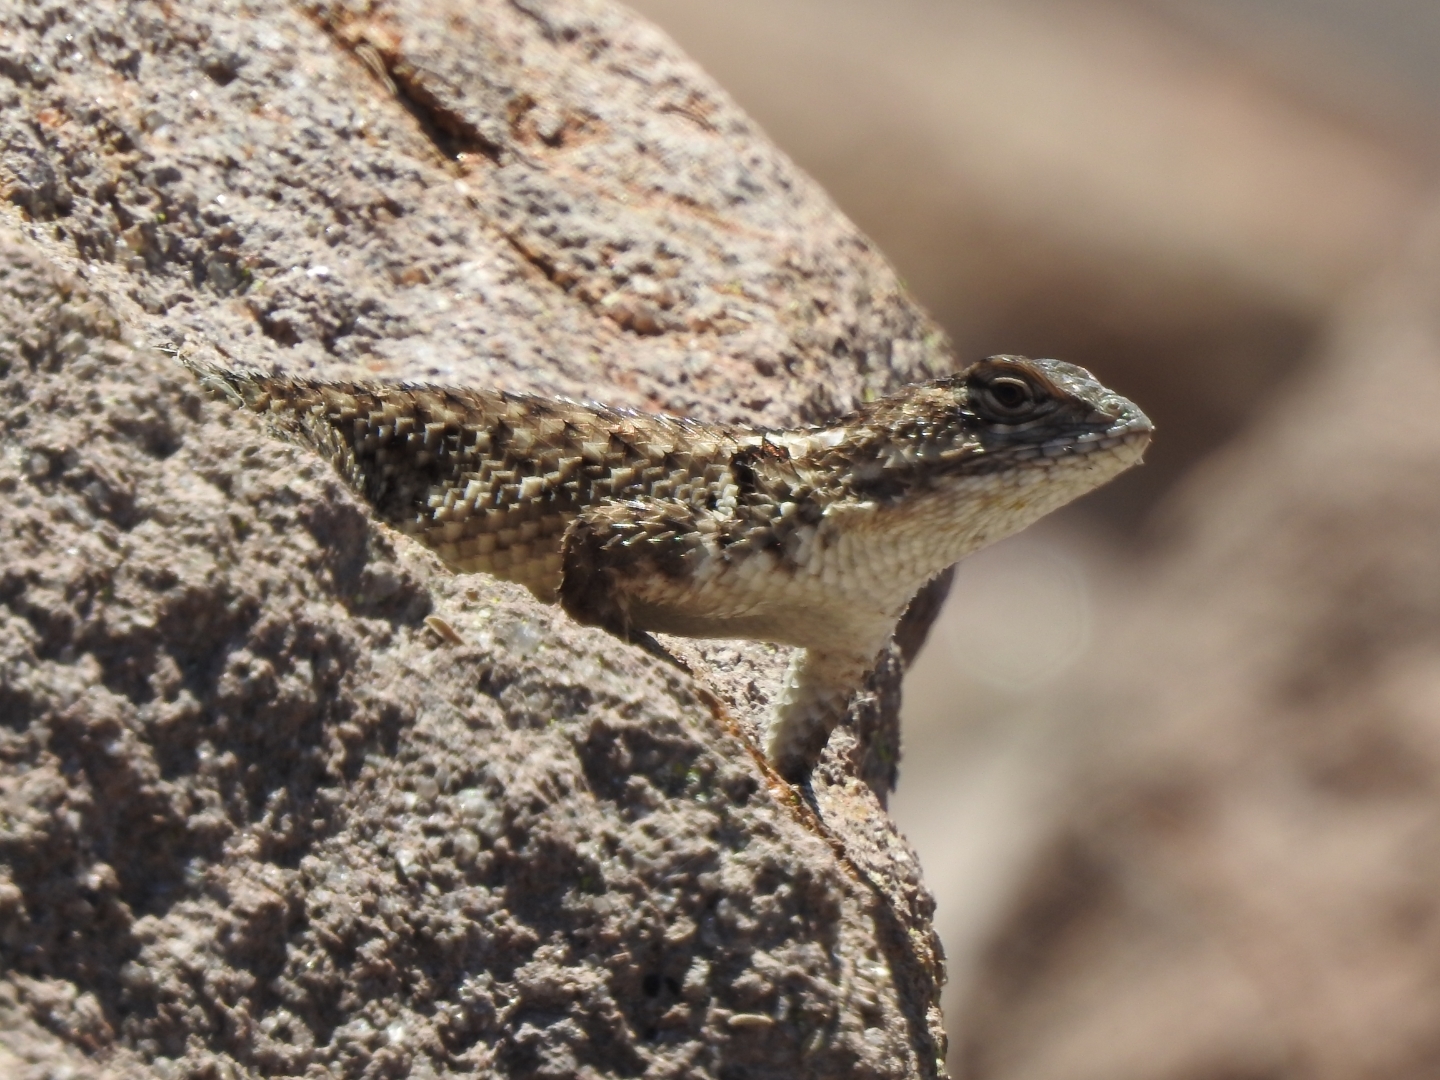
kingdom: Animalia
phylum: Chordata
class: Squamata
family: Phrynosomatidae
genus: Sceloporus
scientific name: Sceloporus torquatus
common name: Central plateau torquate lizard [melanogaster]
